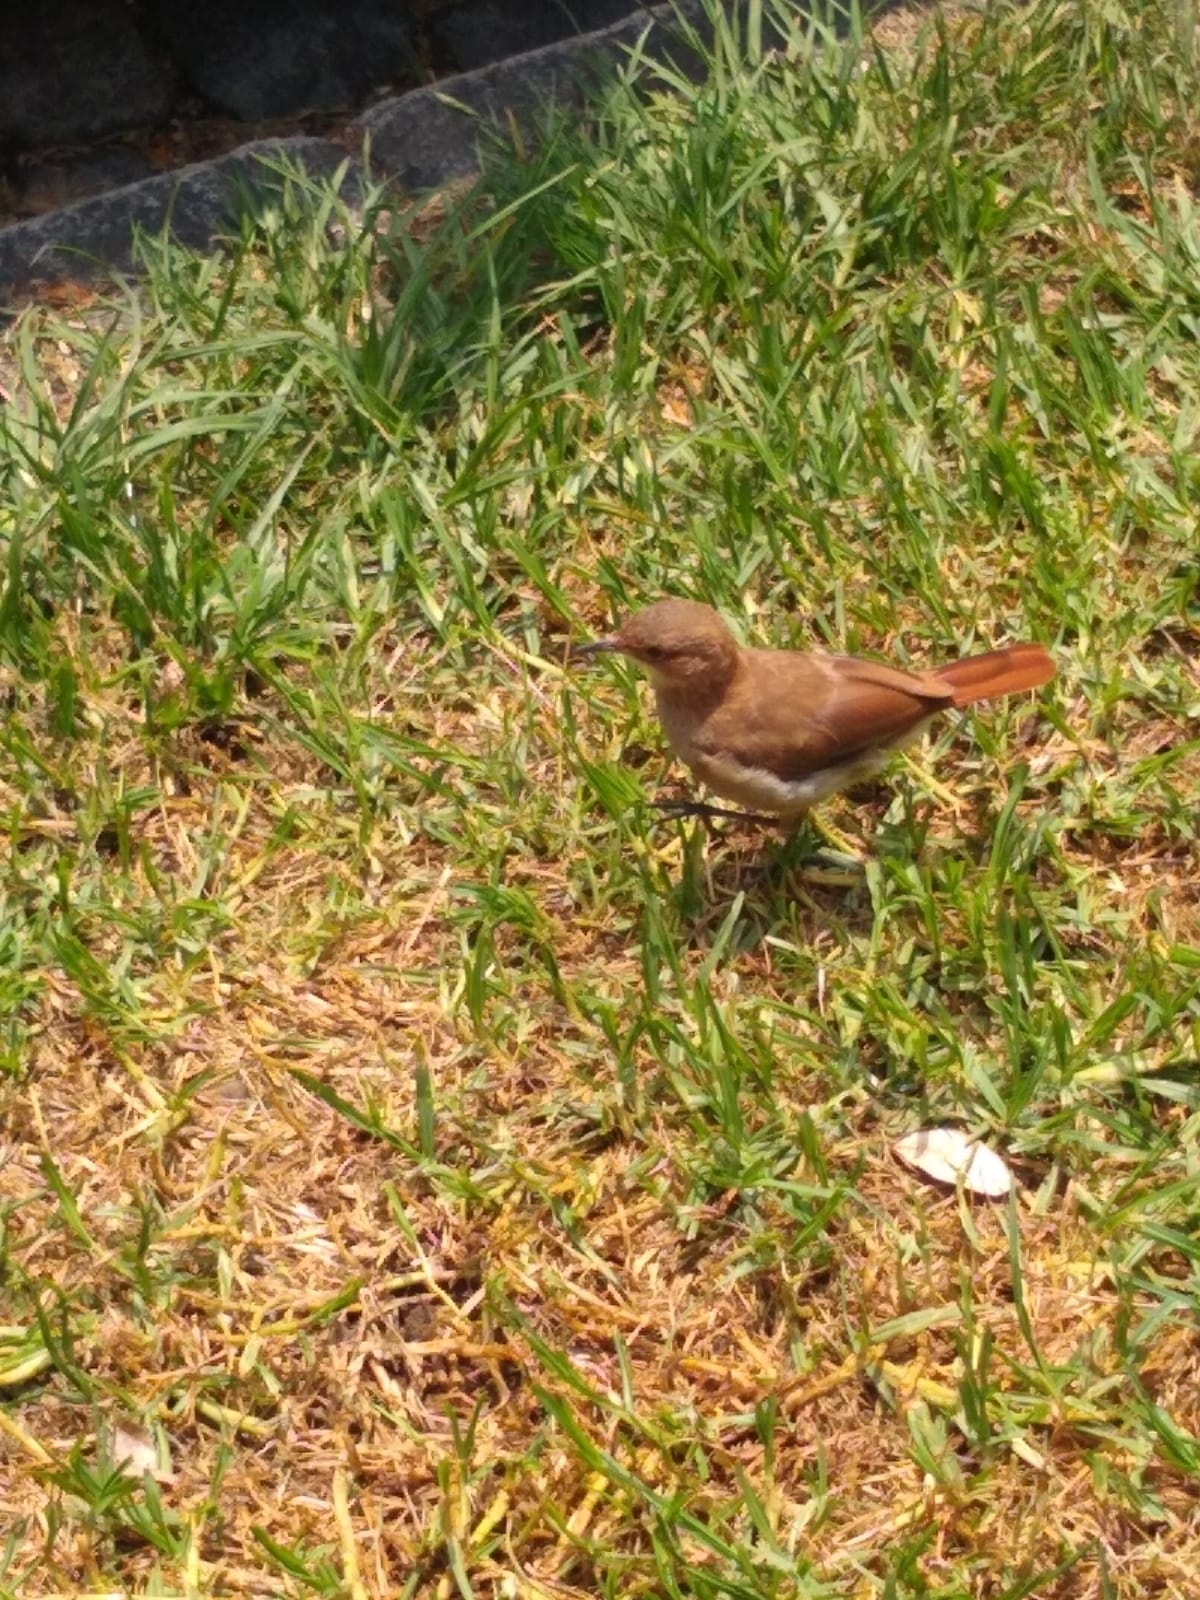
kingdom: Animalia
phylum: Chordata
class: Aves
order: Passeriformes
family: Furnariidae
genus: Furnarius
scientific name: Furnarius rufus
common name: Rufous hornero
